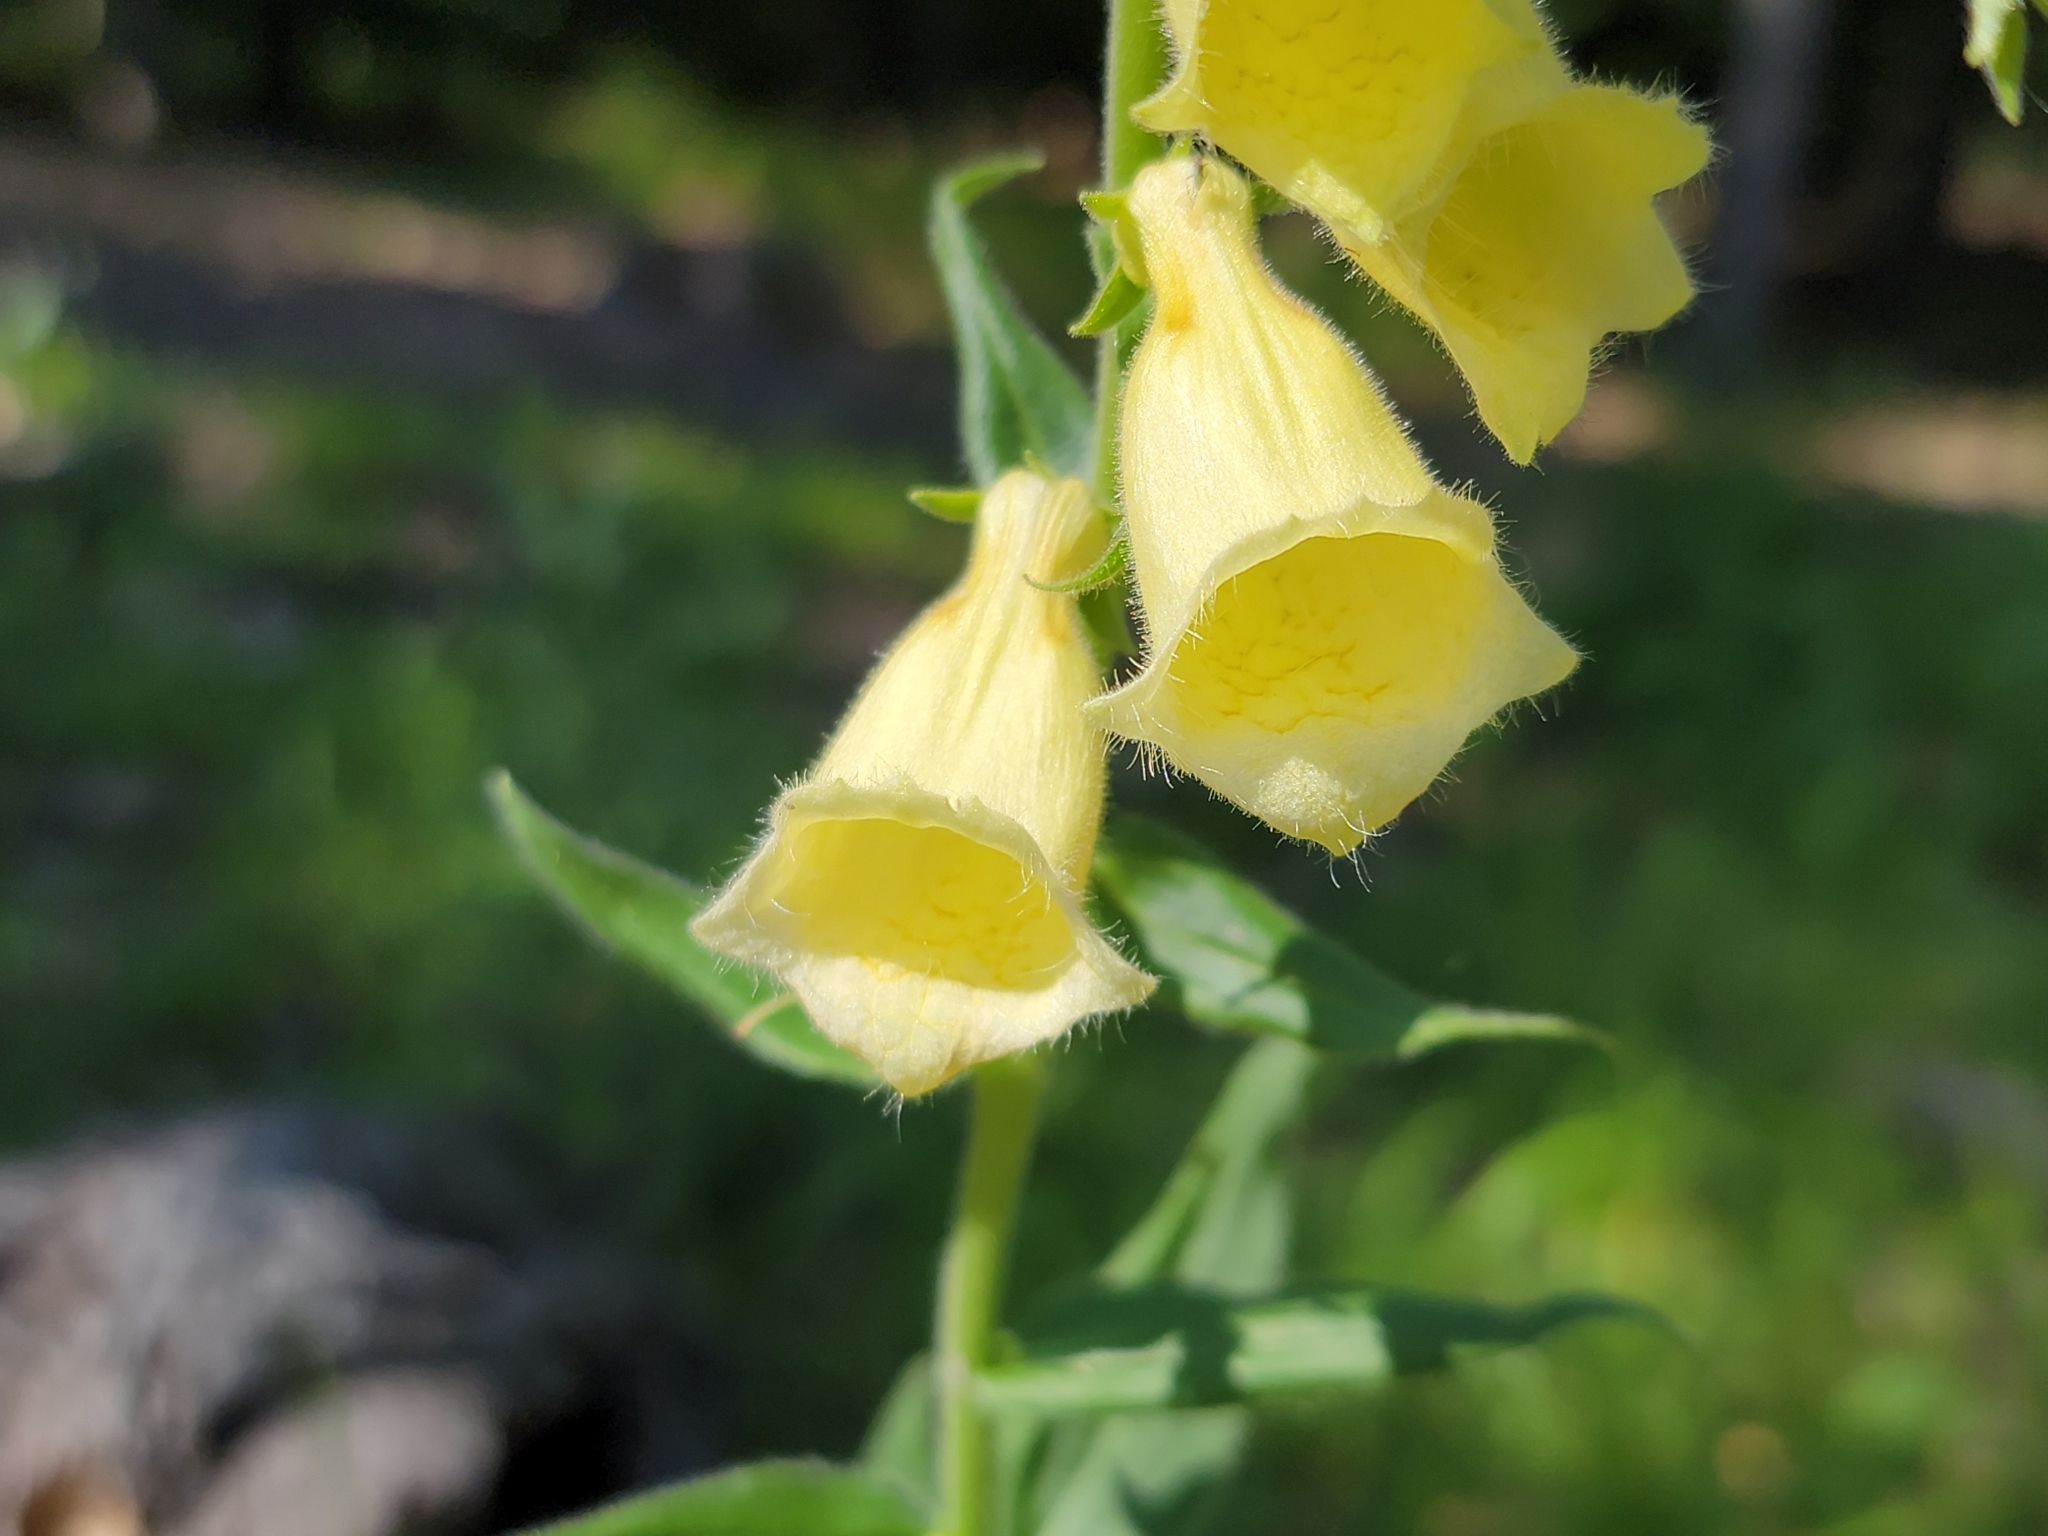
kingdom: Plantae
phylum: Tracheophyta
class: Magnoliopsida
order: Lamiales
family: Plantaginaceae
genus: Digitalis
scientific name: Digitalis grandiflora
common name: Yellow foxglove
